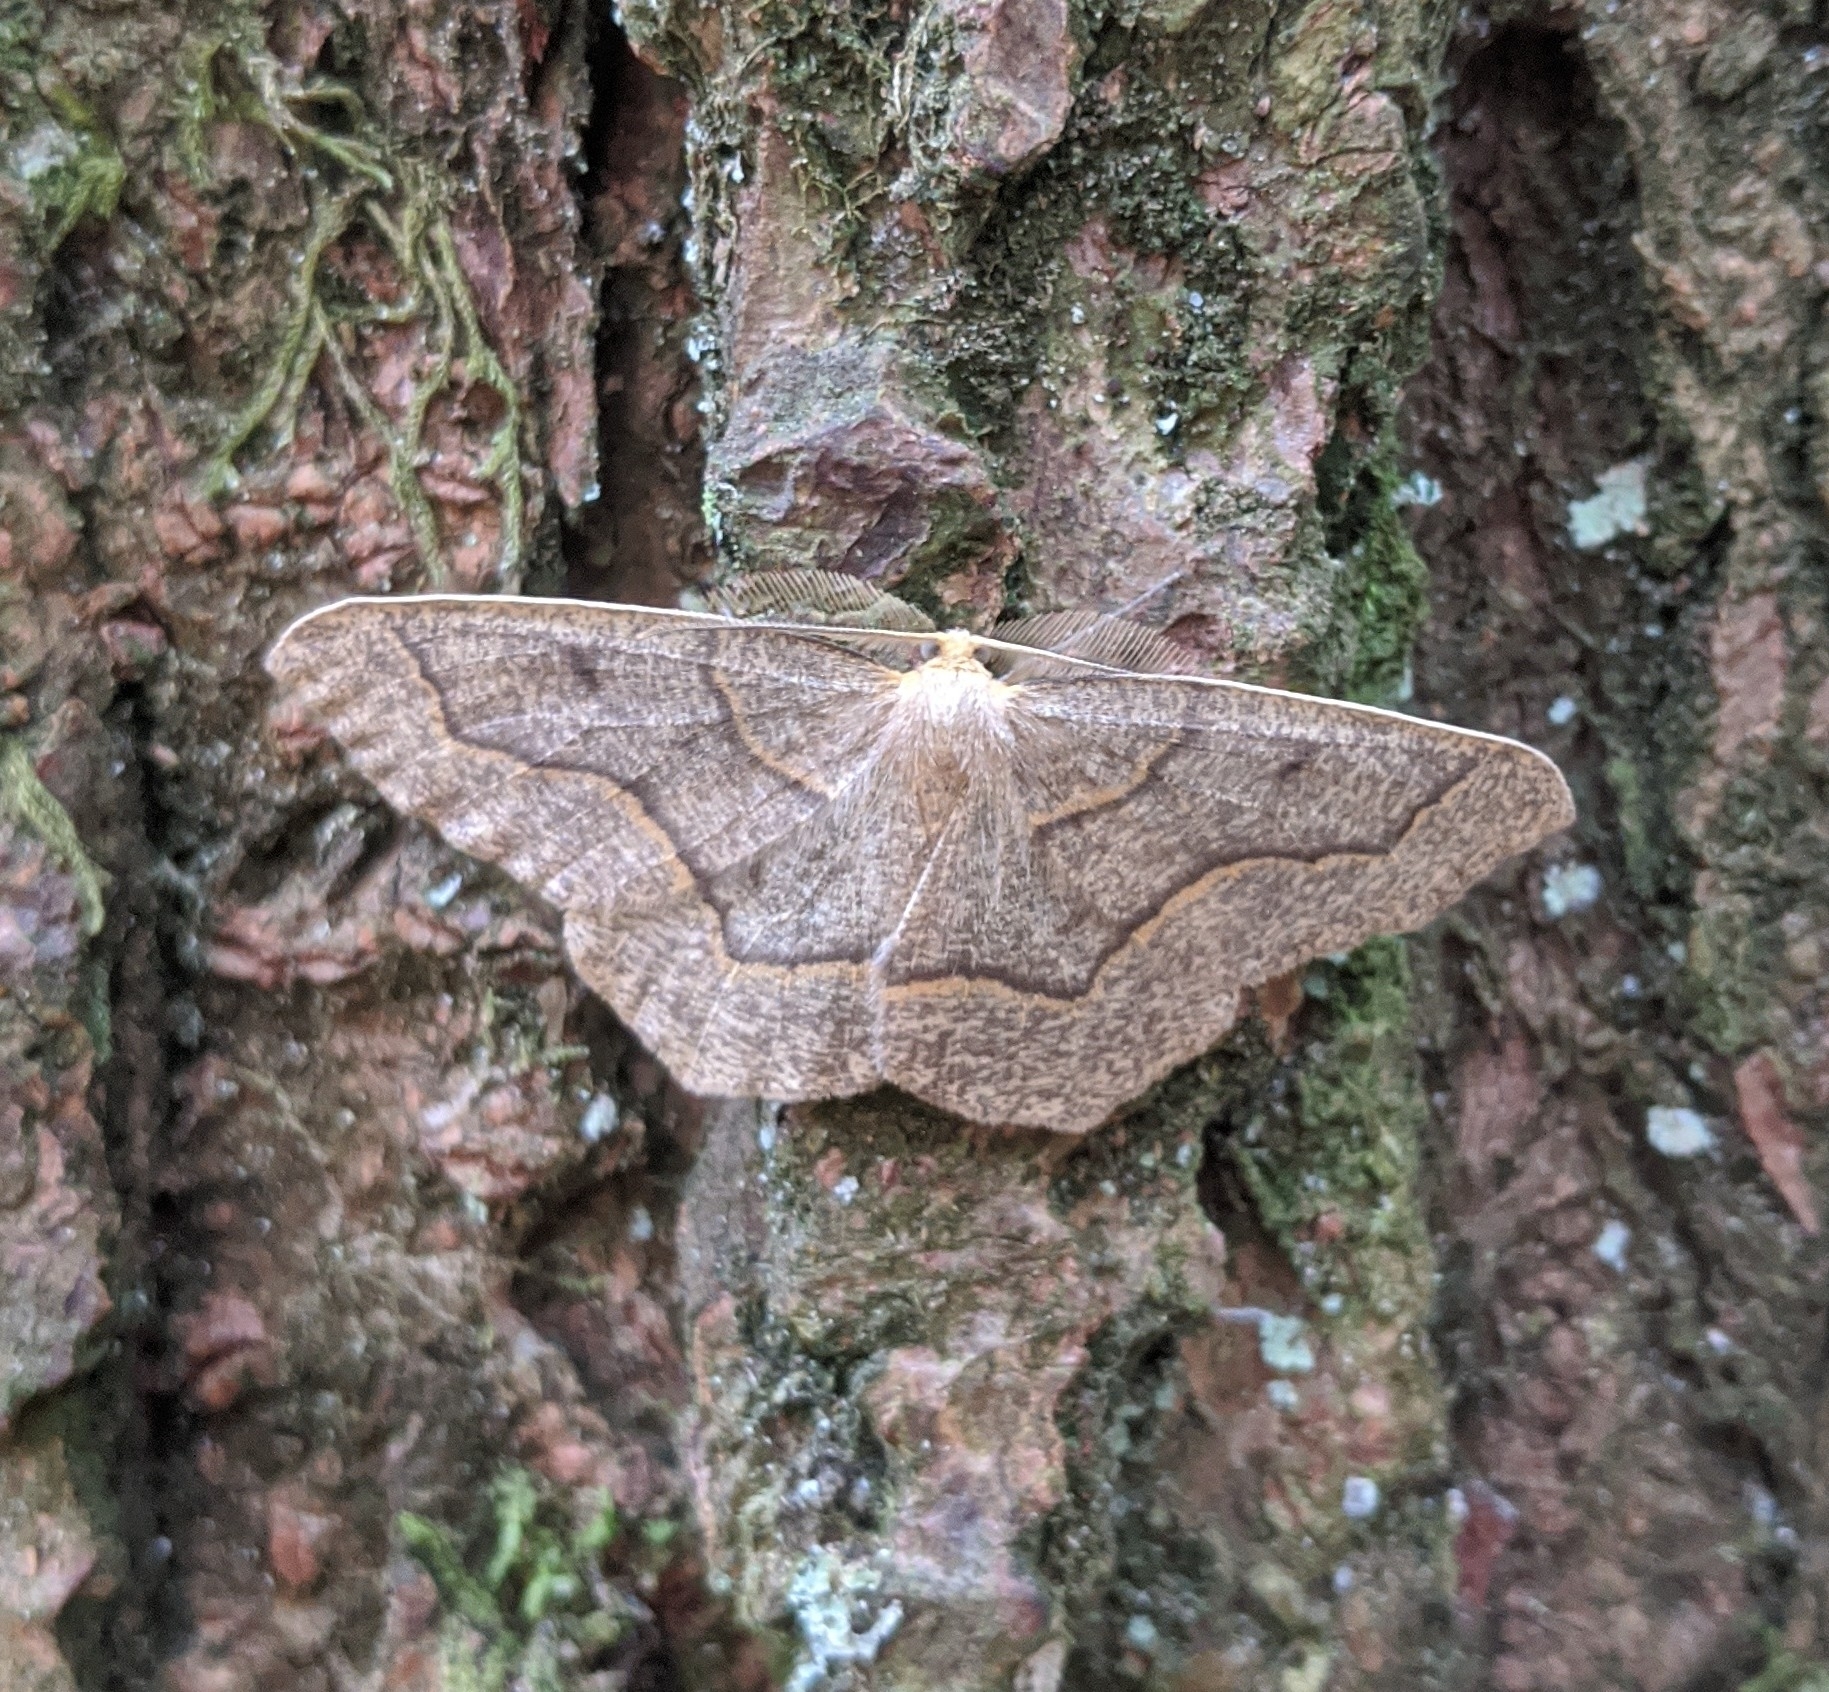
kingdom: Animalia
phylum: Arthropoda
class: Insecta
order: Lepidoptera
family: Geometridae
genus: Lambdina
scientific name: Lambdina fiscellaria
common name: Hemlock looper
